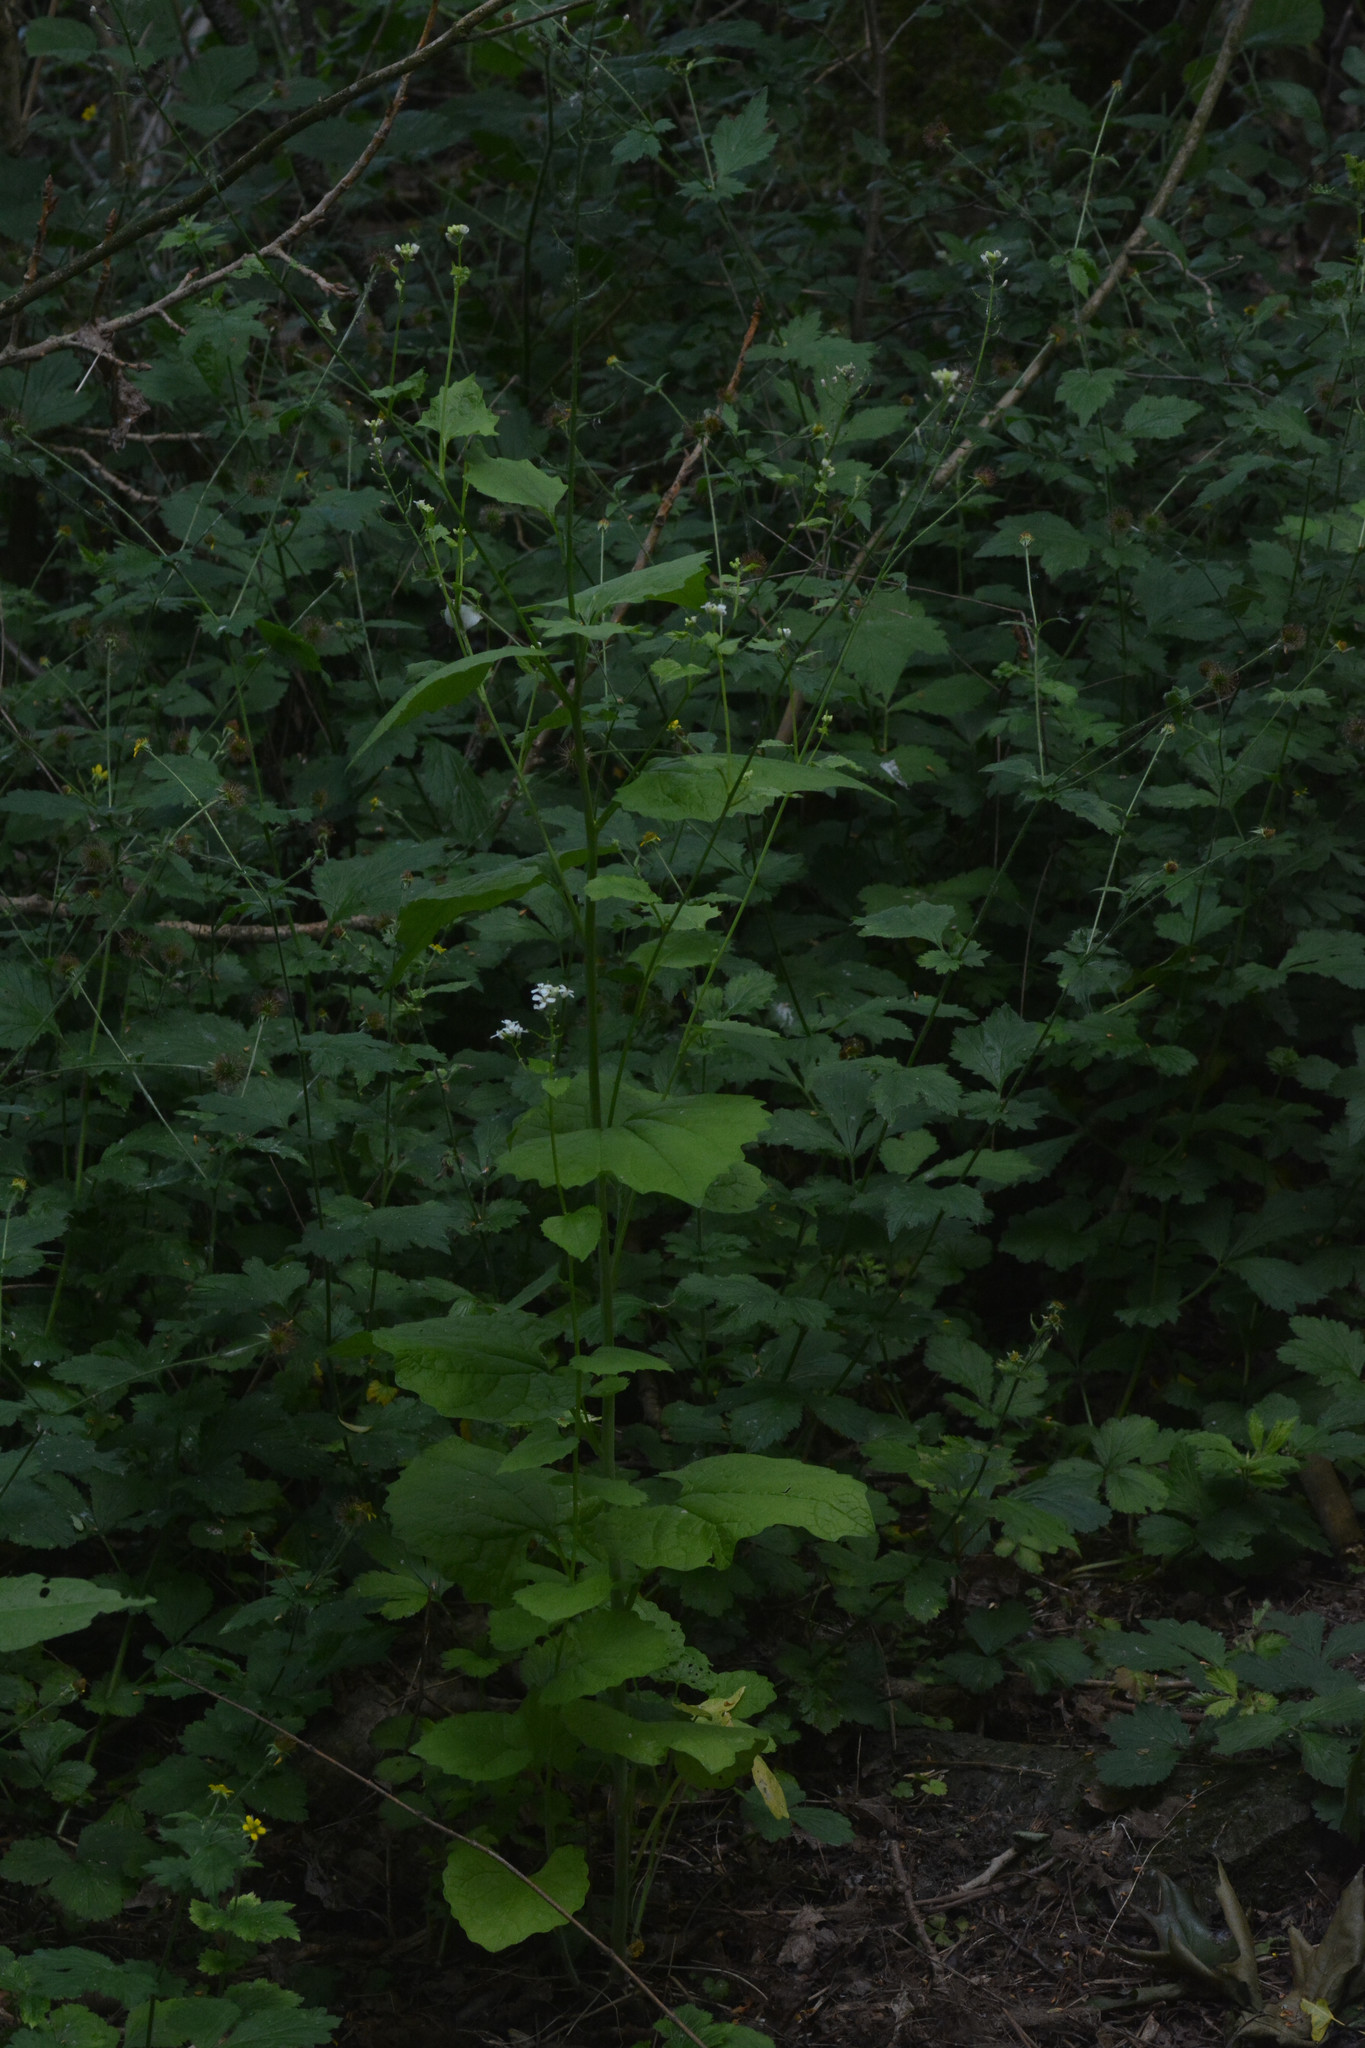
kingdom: Plantae
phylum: Tracheophyta
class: Magnoliopsida
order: Brassicales
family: Brassicaceae
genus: Alliaria
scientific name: Alliaria petiolata
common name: Garlic mustard
